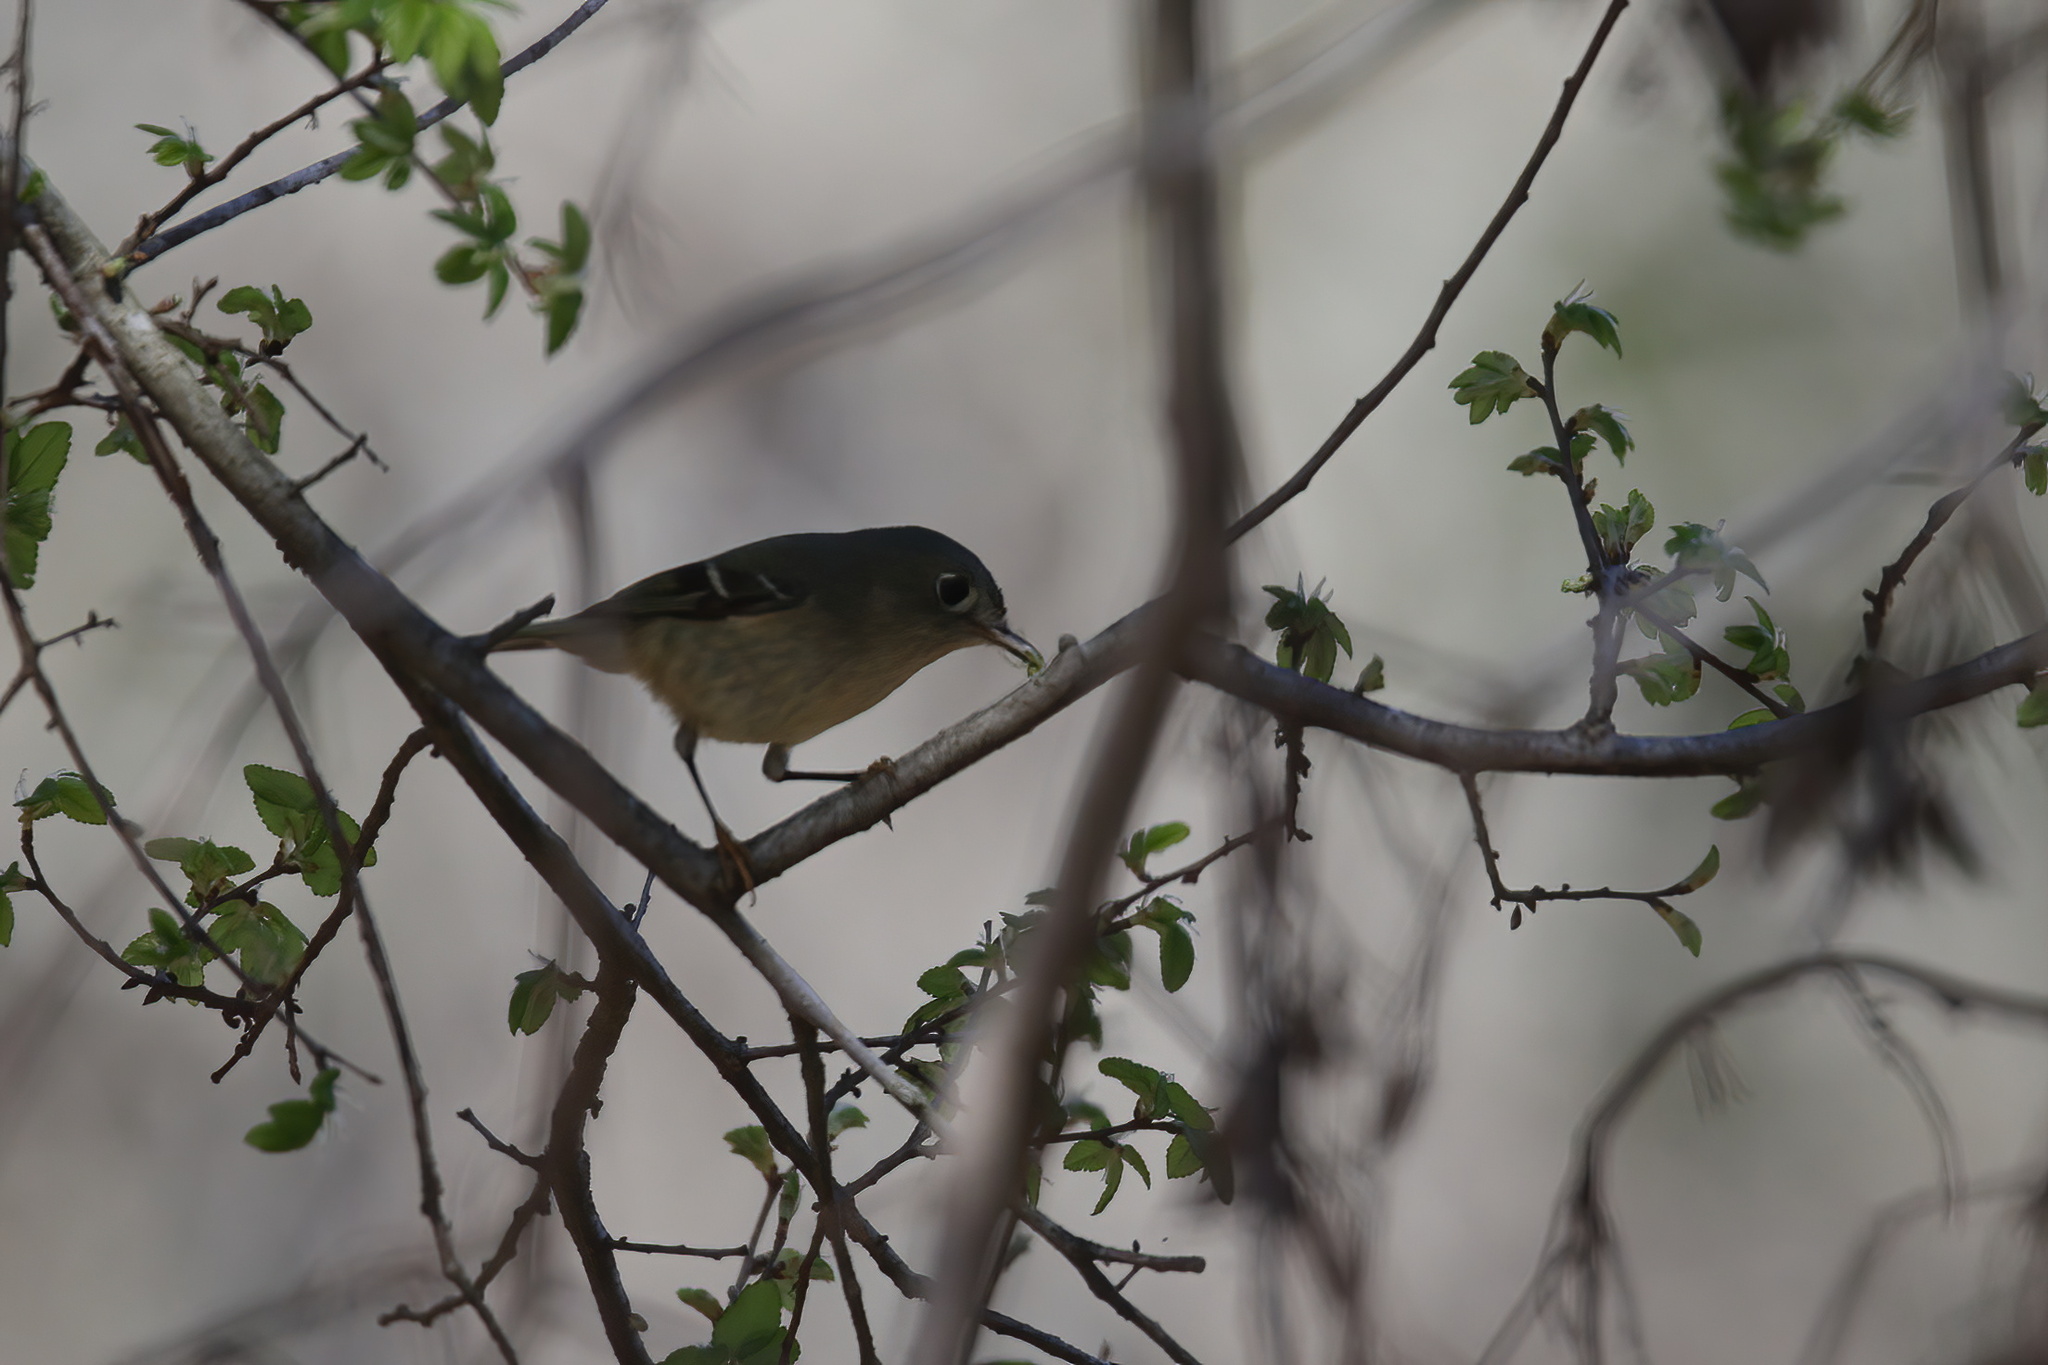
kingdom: Animalia
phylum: Chordata
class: Aves
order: Passeriformes
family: Regulidae
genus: Regulus
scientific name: Regulus calendula
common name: Ruby-crowned kinglet
